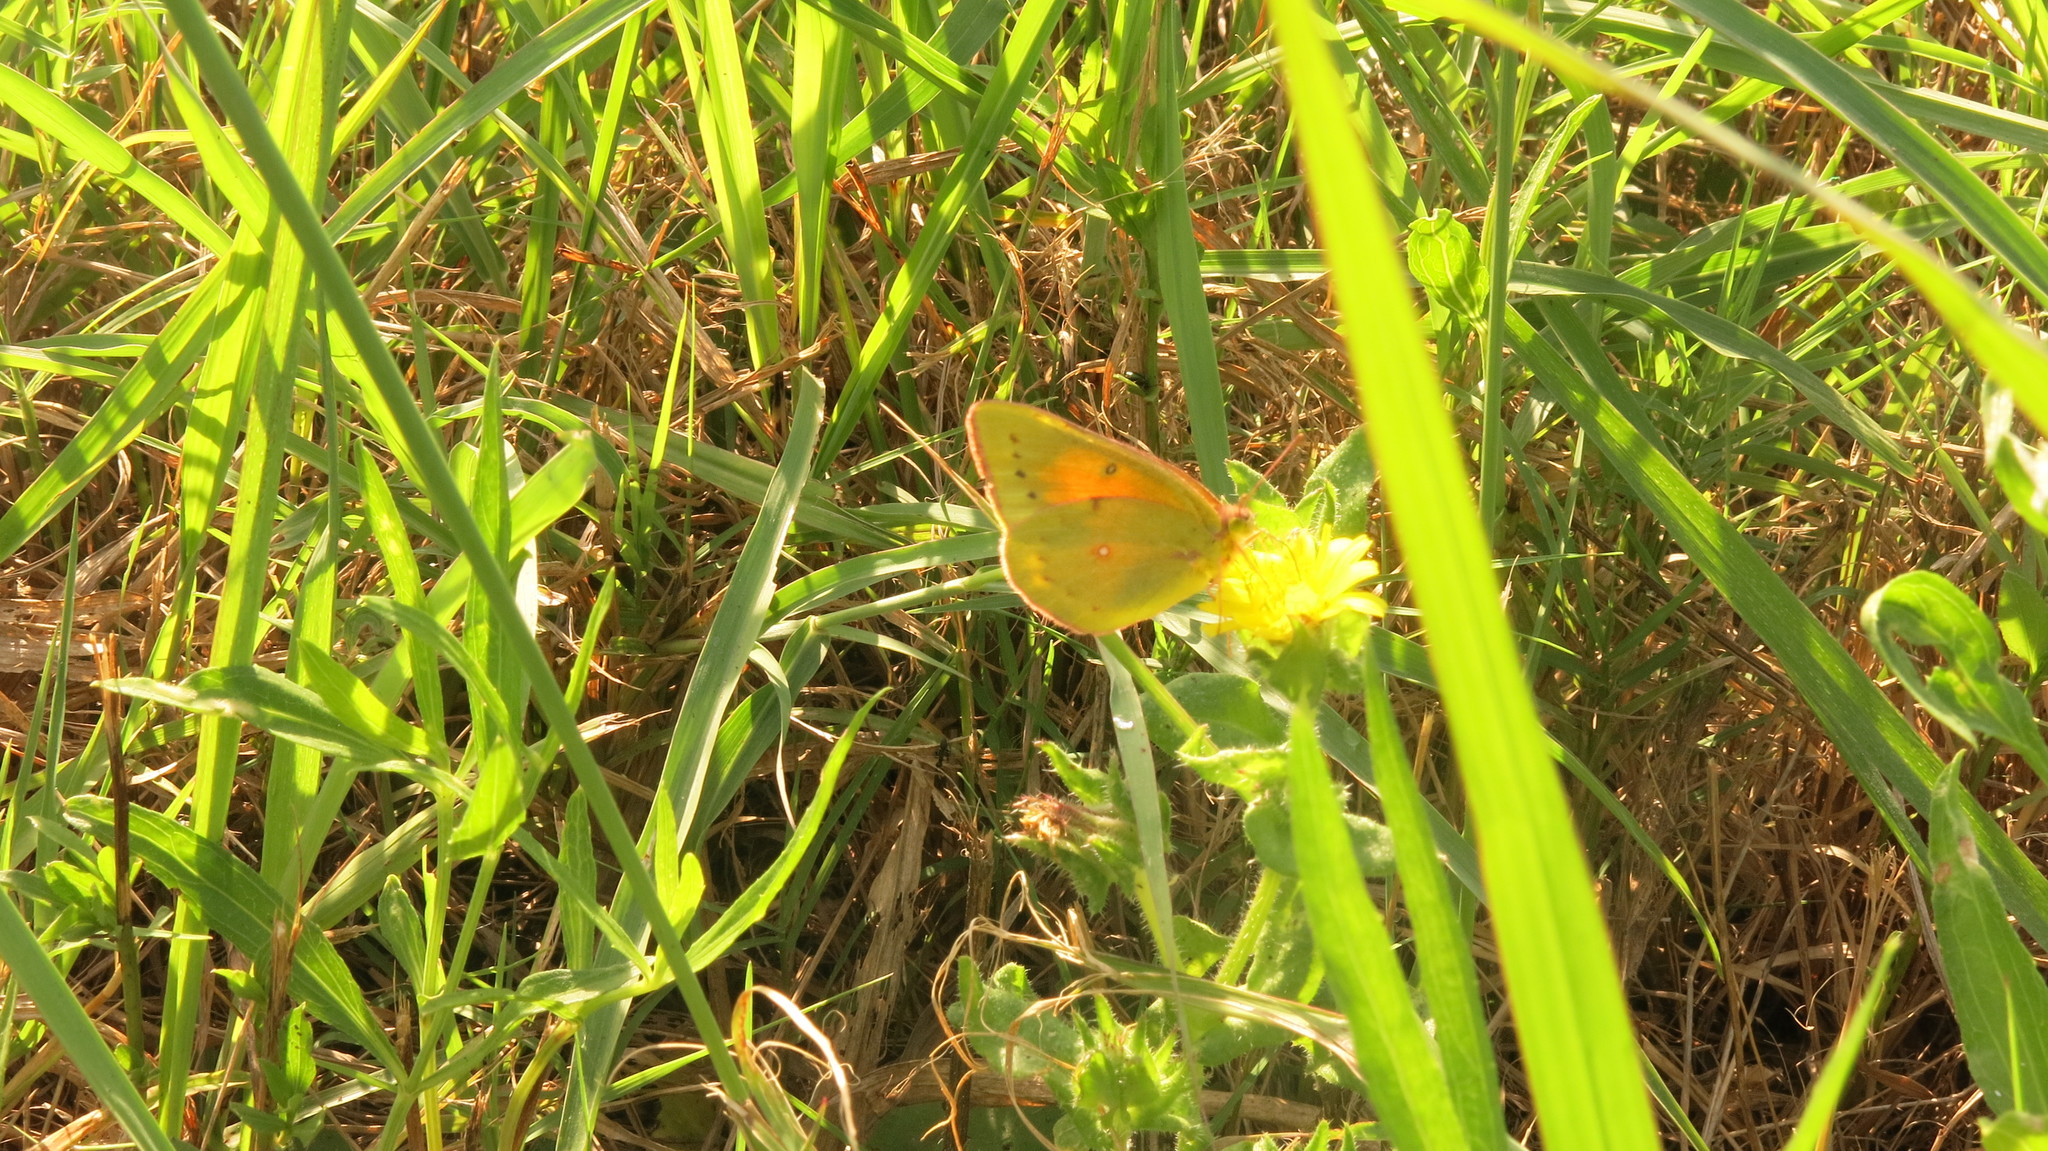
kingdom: Animalia
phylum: Arthropoda
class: Insecta
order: Lepidoptera
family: Pieridae
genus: Colias
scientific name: Colias lesbia
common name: Lesbia clouded yellow
